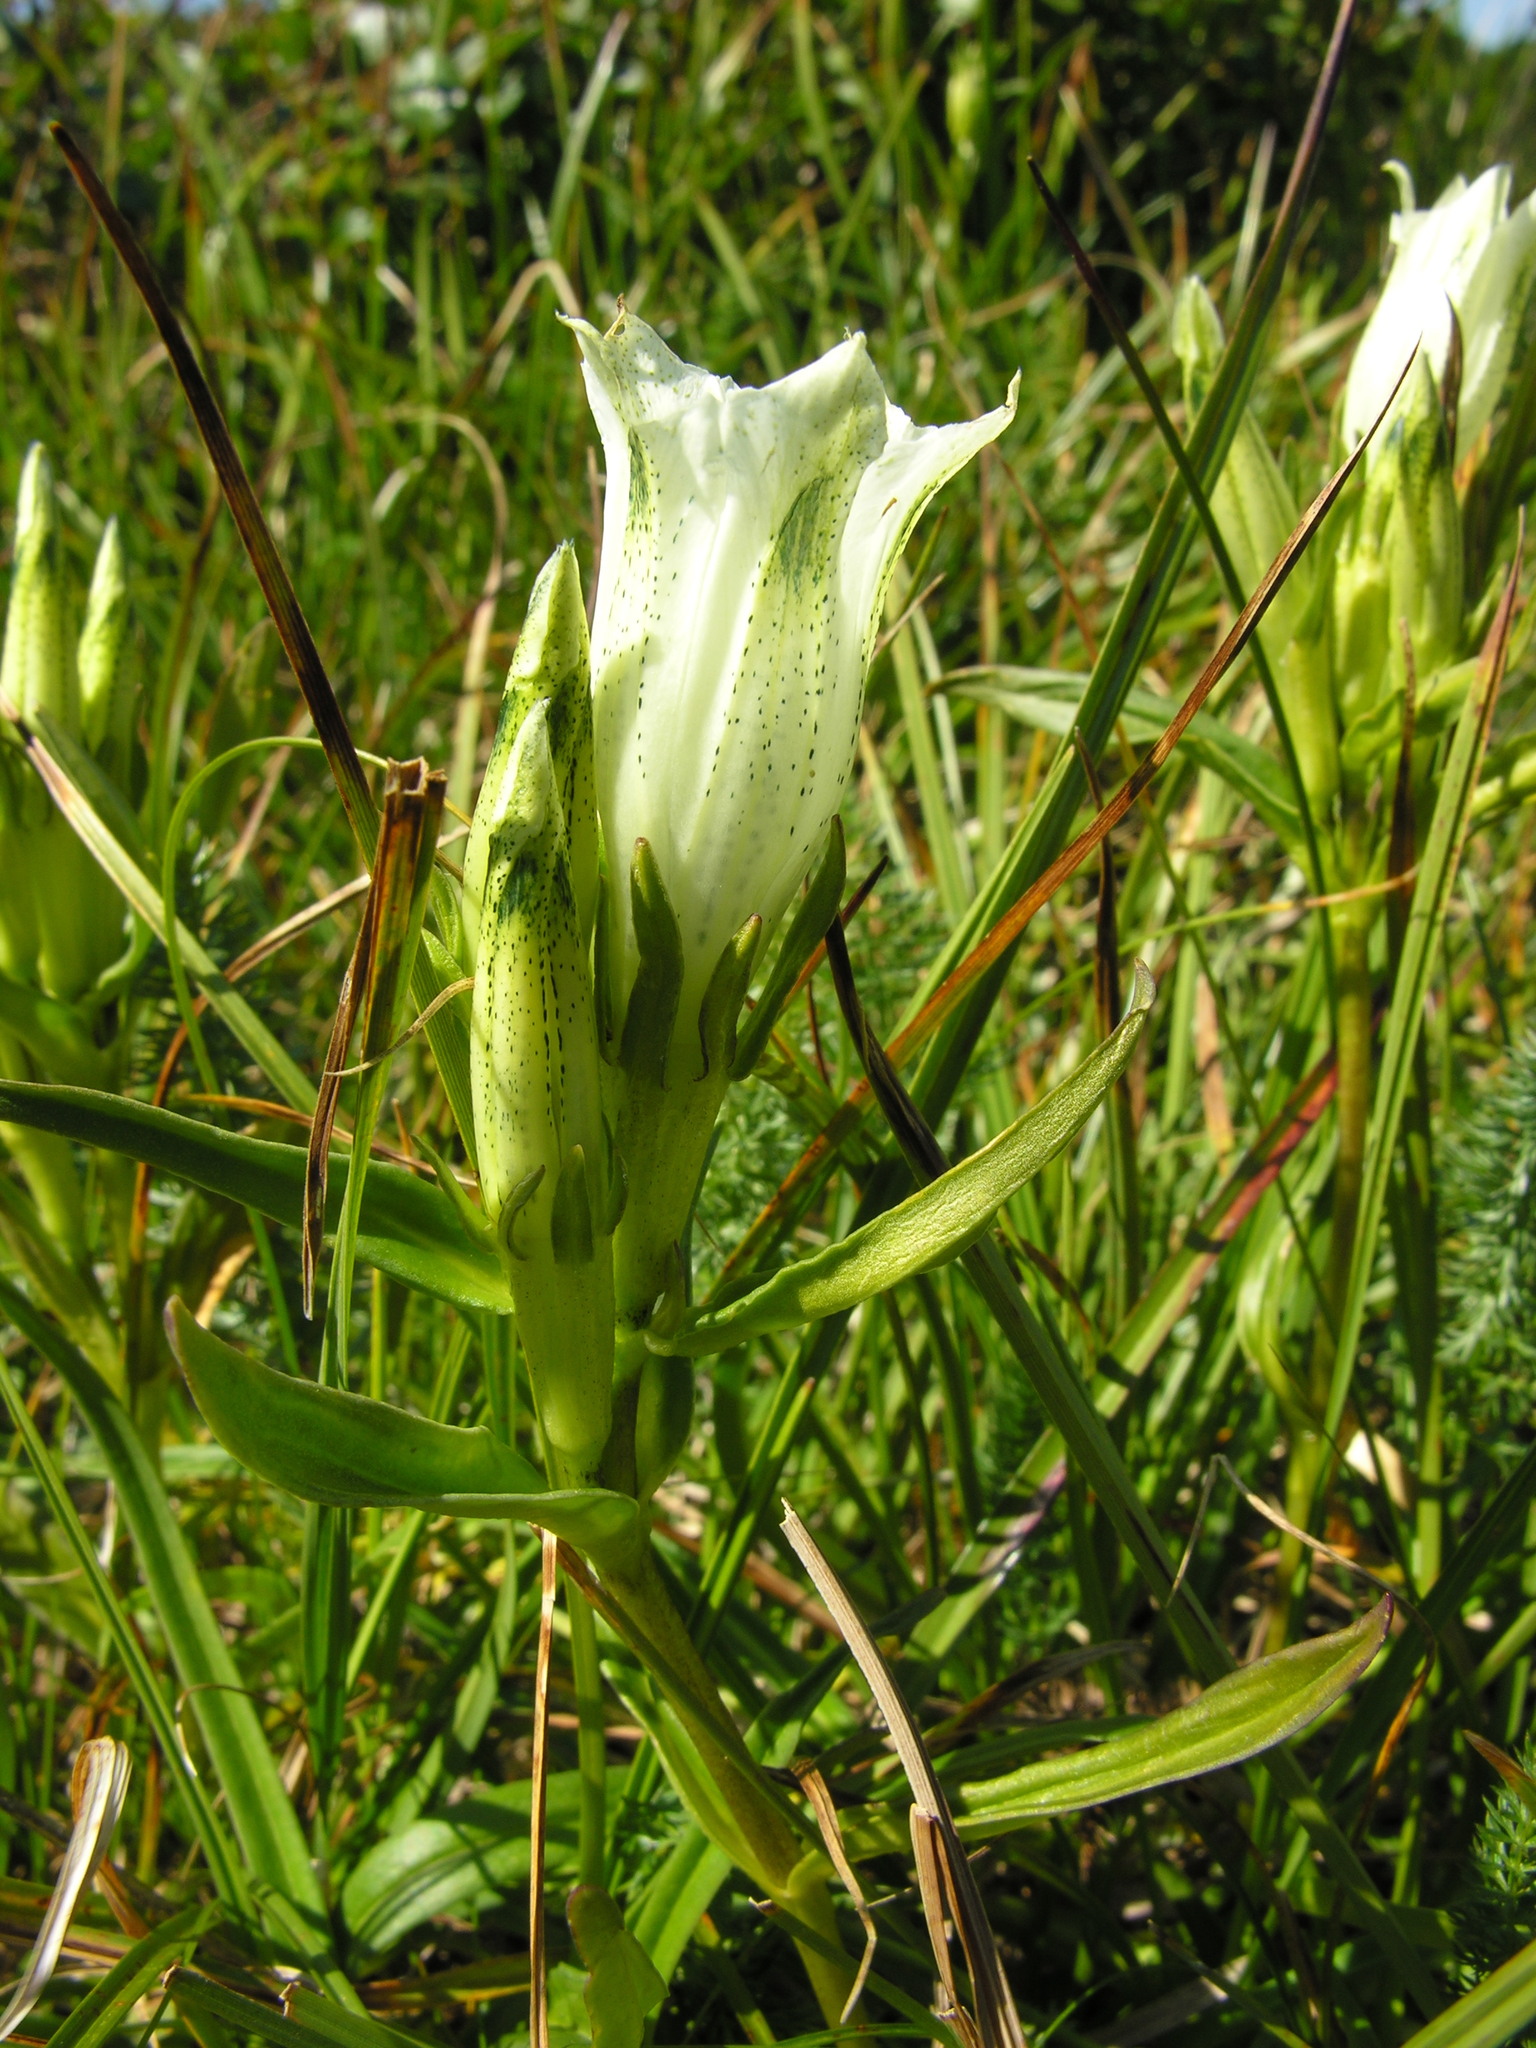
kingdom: Plantae
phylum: Tracheophyta
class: Magnoliopsida
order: Gentianales
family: Gentianaceae
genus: Gentiana
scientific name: Gentiana algida
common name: Arctic gentian
